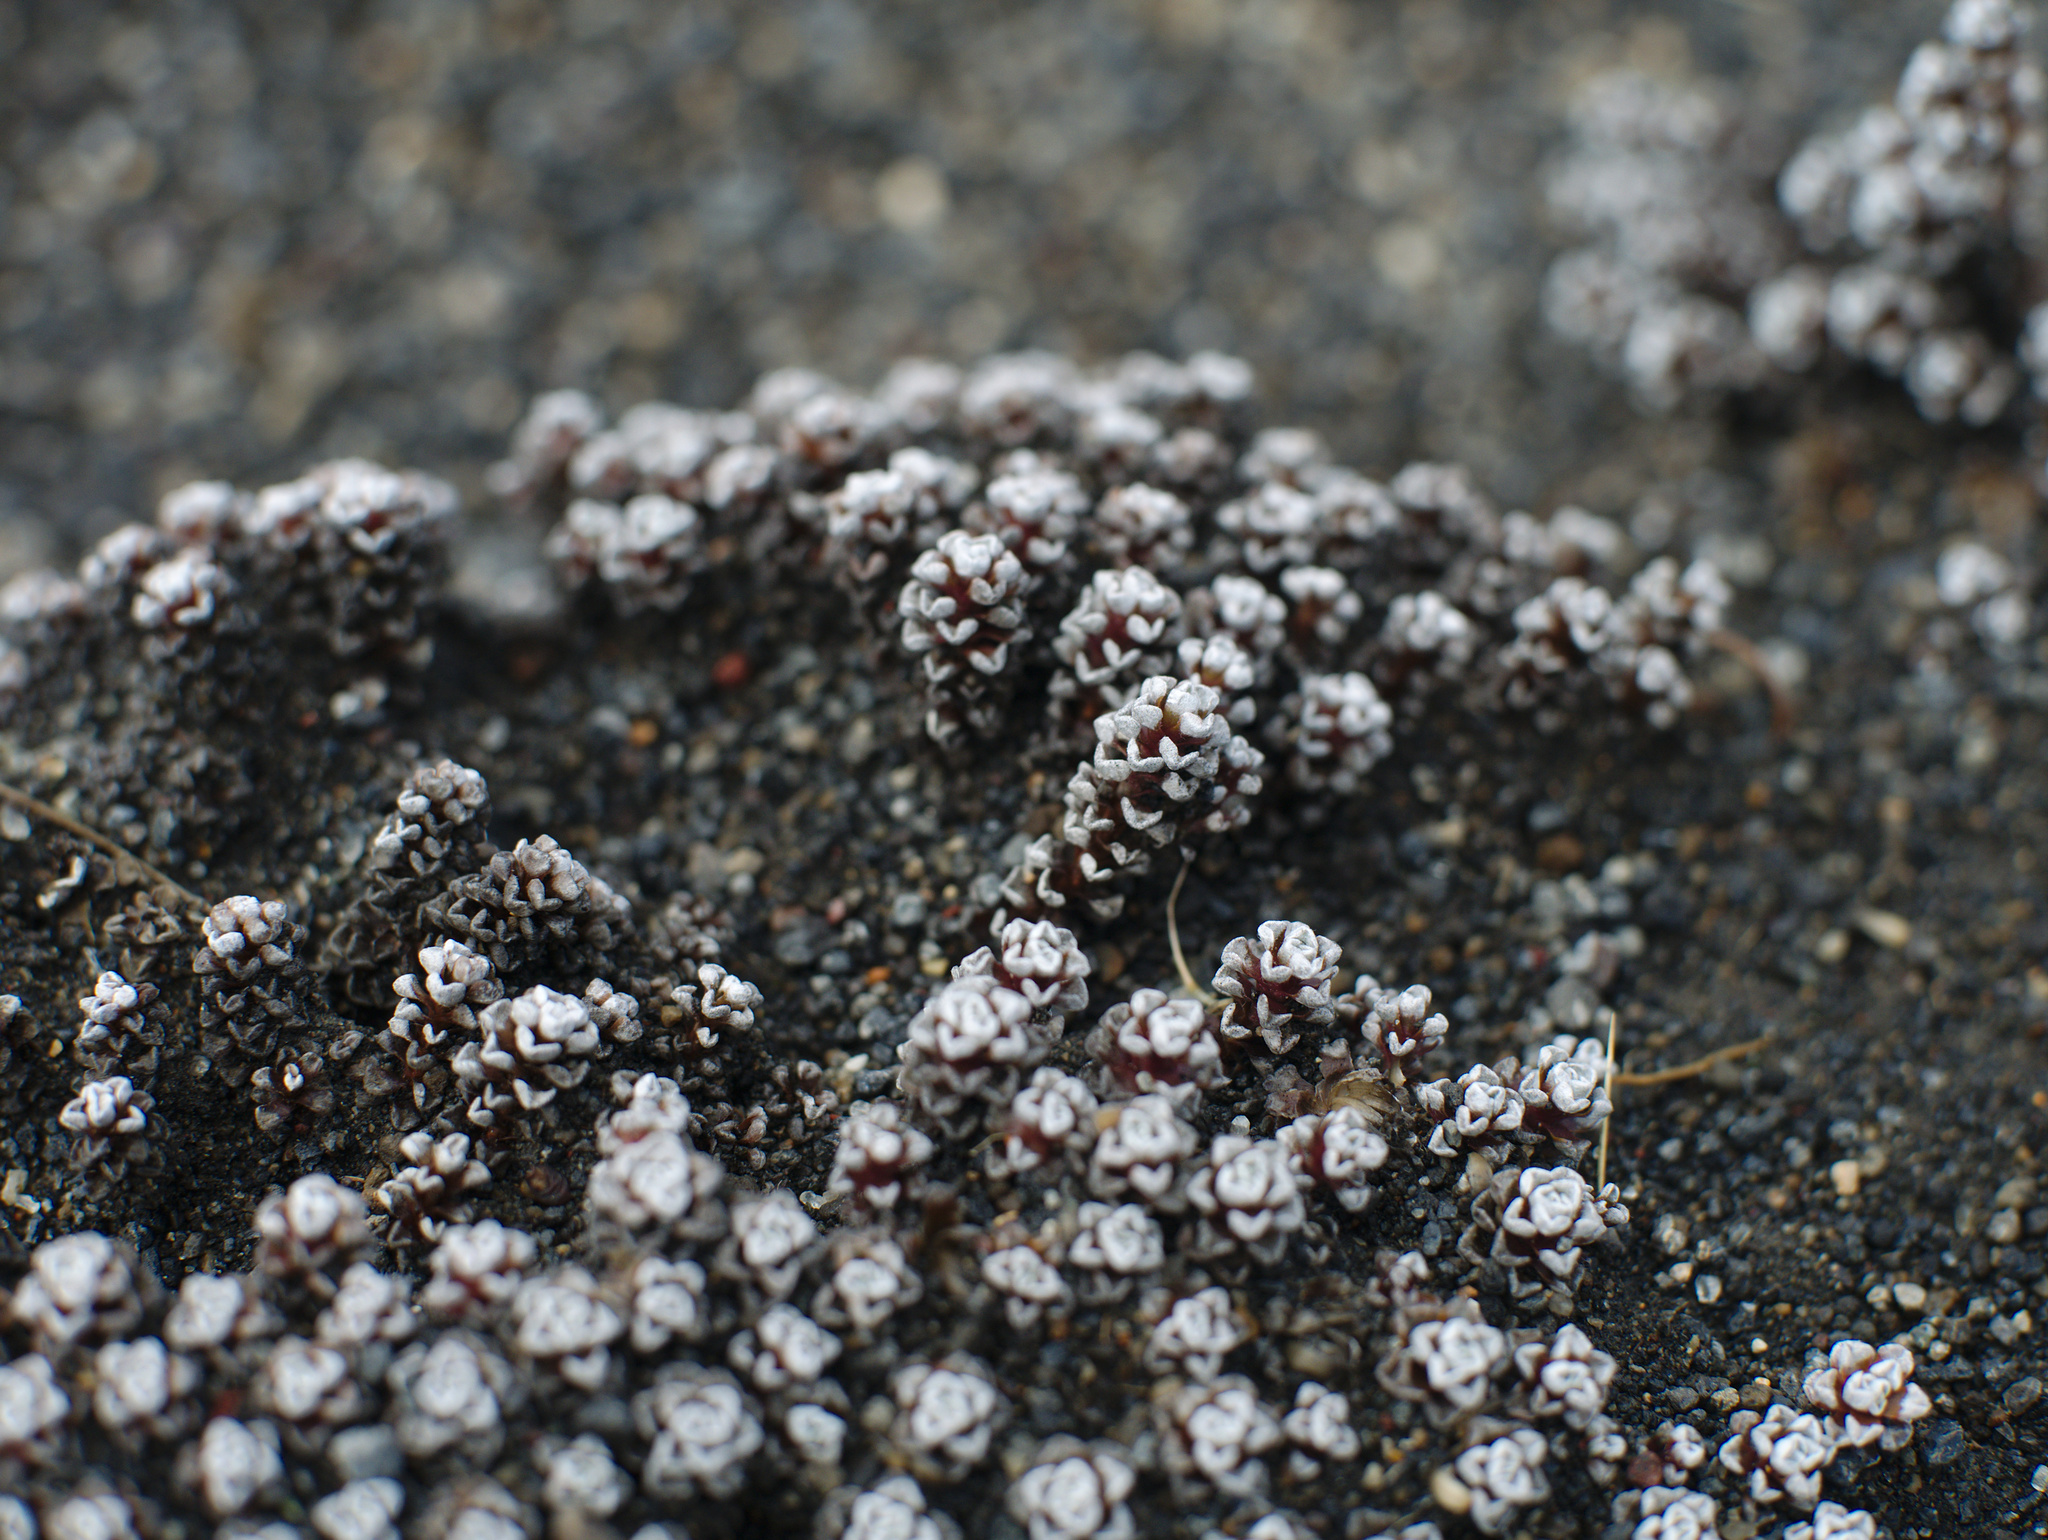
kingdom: Plantae
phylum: Tracheophyta
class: Magnoliopsida
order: Asterales
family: Asteraceae
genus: Raoulia
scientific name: Raoulia albosericea
